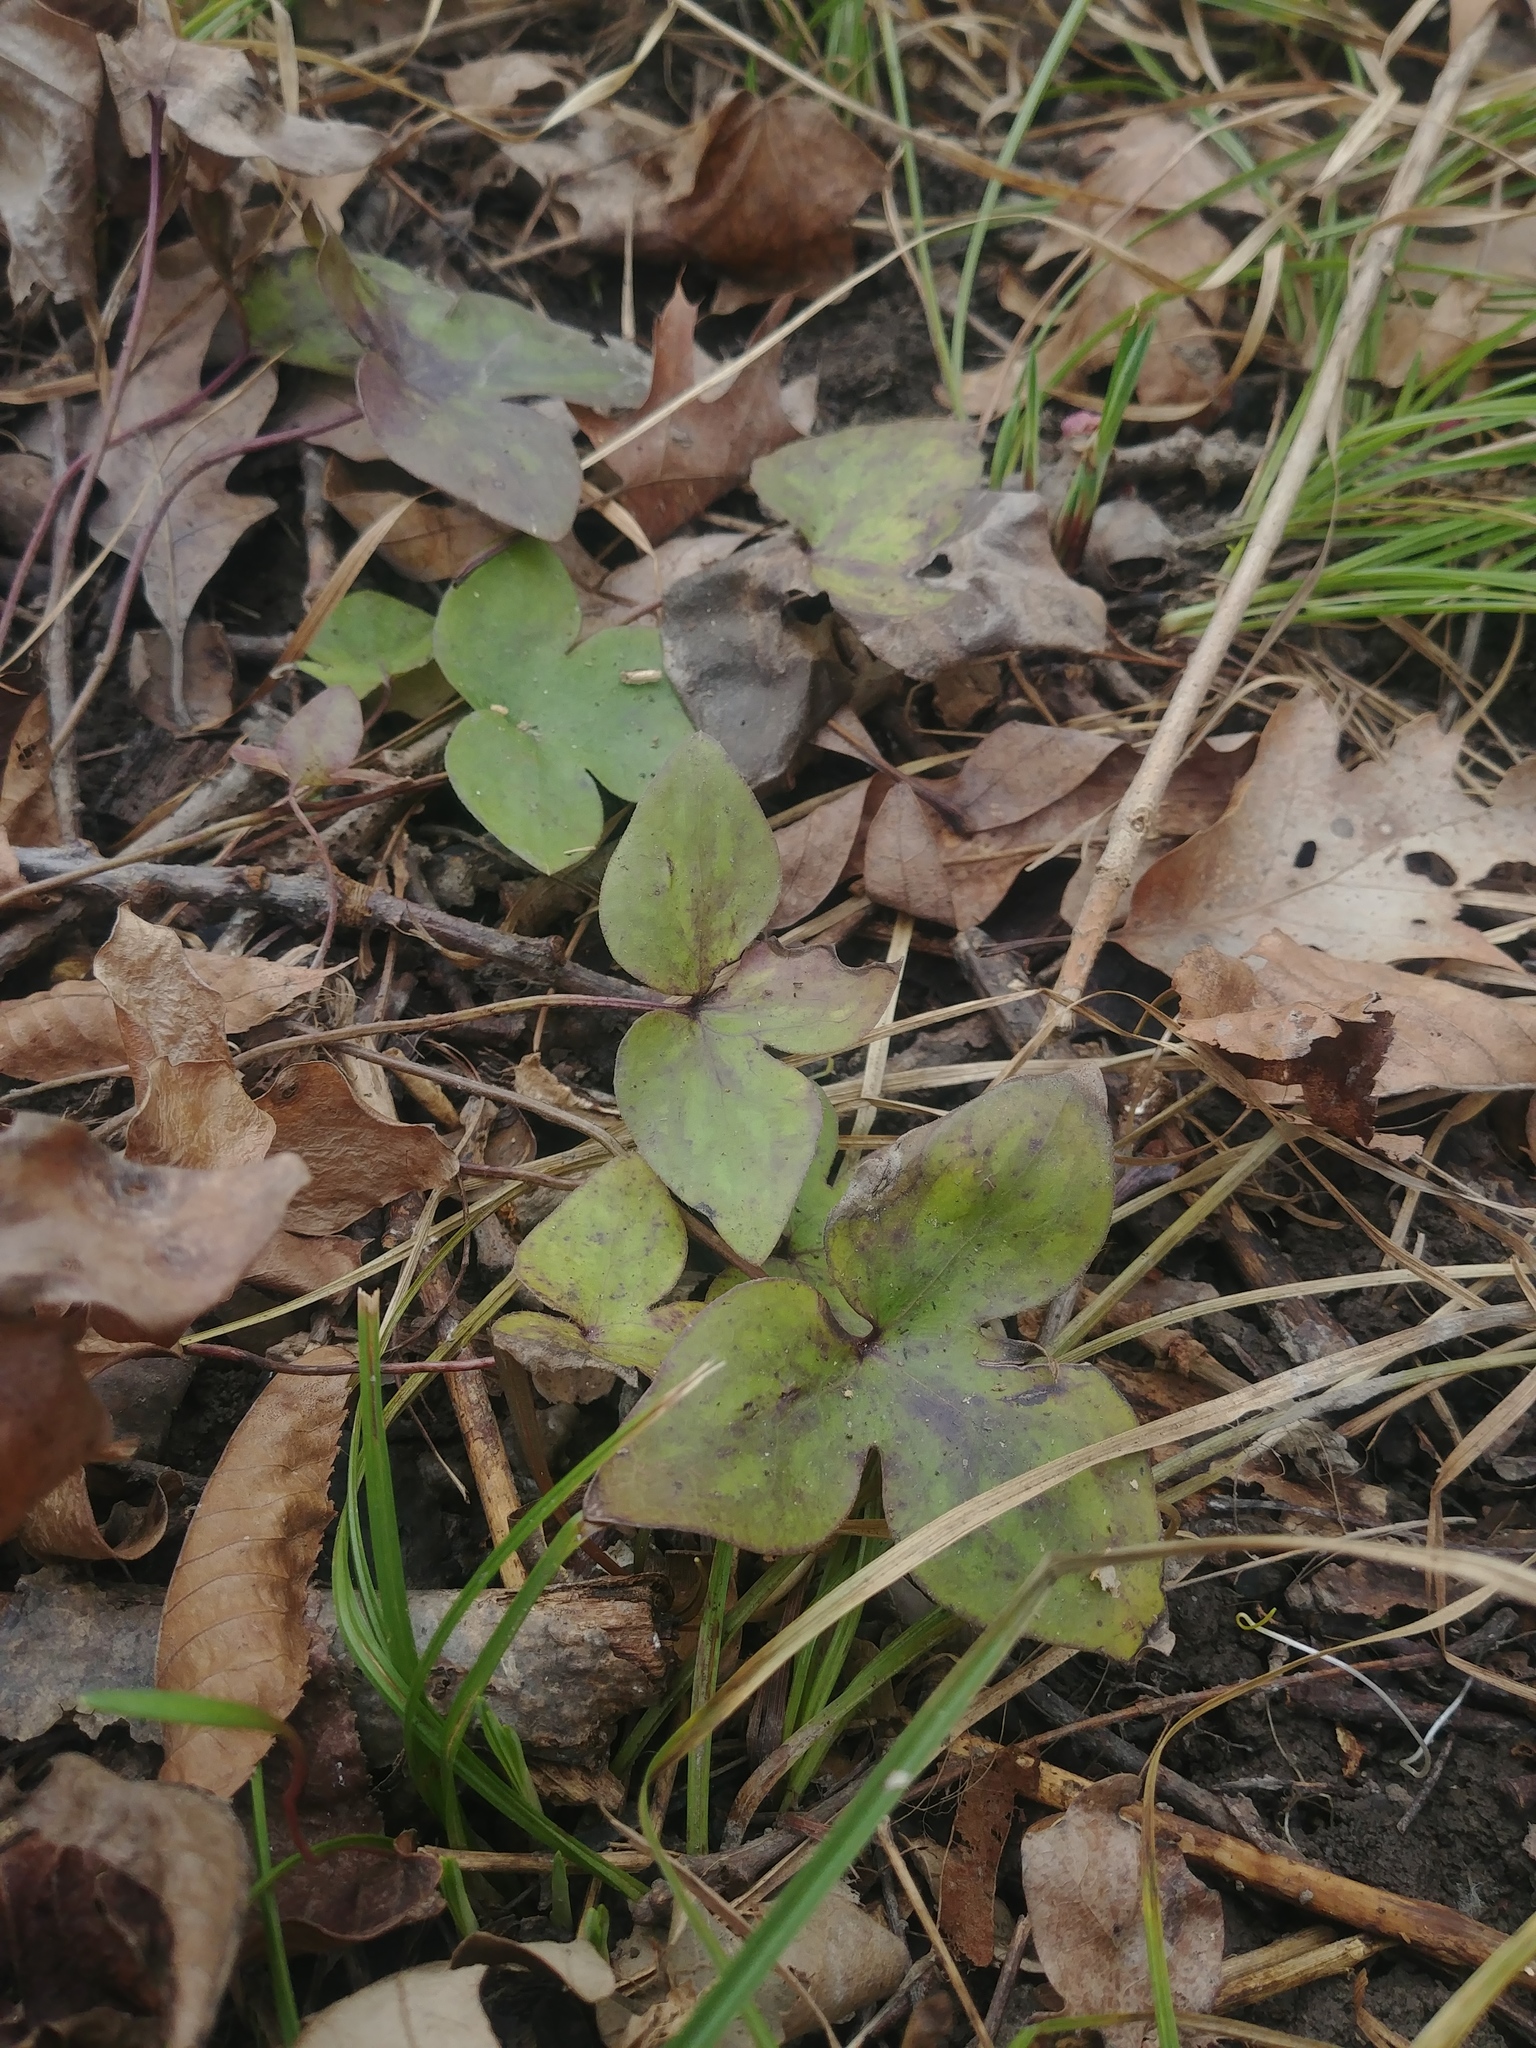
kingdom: Plantae
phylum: Tracheophyta
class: Magnoliopsida
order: Ranunculales
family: Ranunculaceae
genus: Hepatica
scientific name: Hepatica acutiloba
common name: Sharp-lobed hepatica
